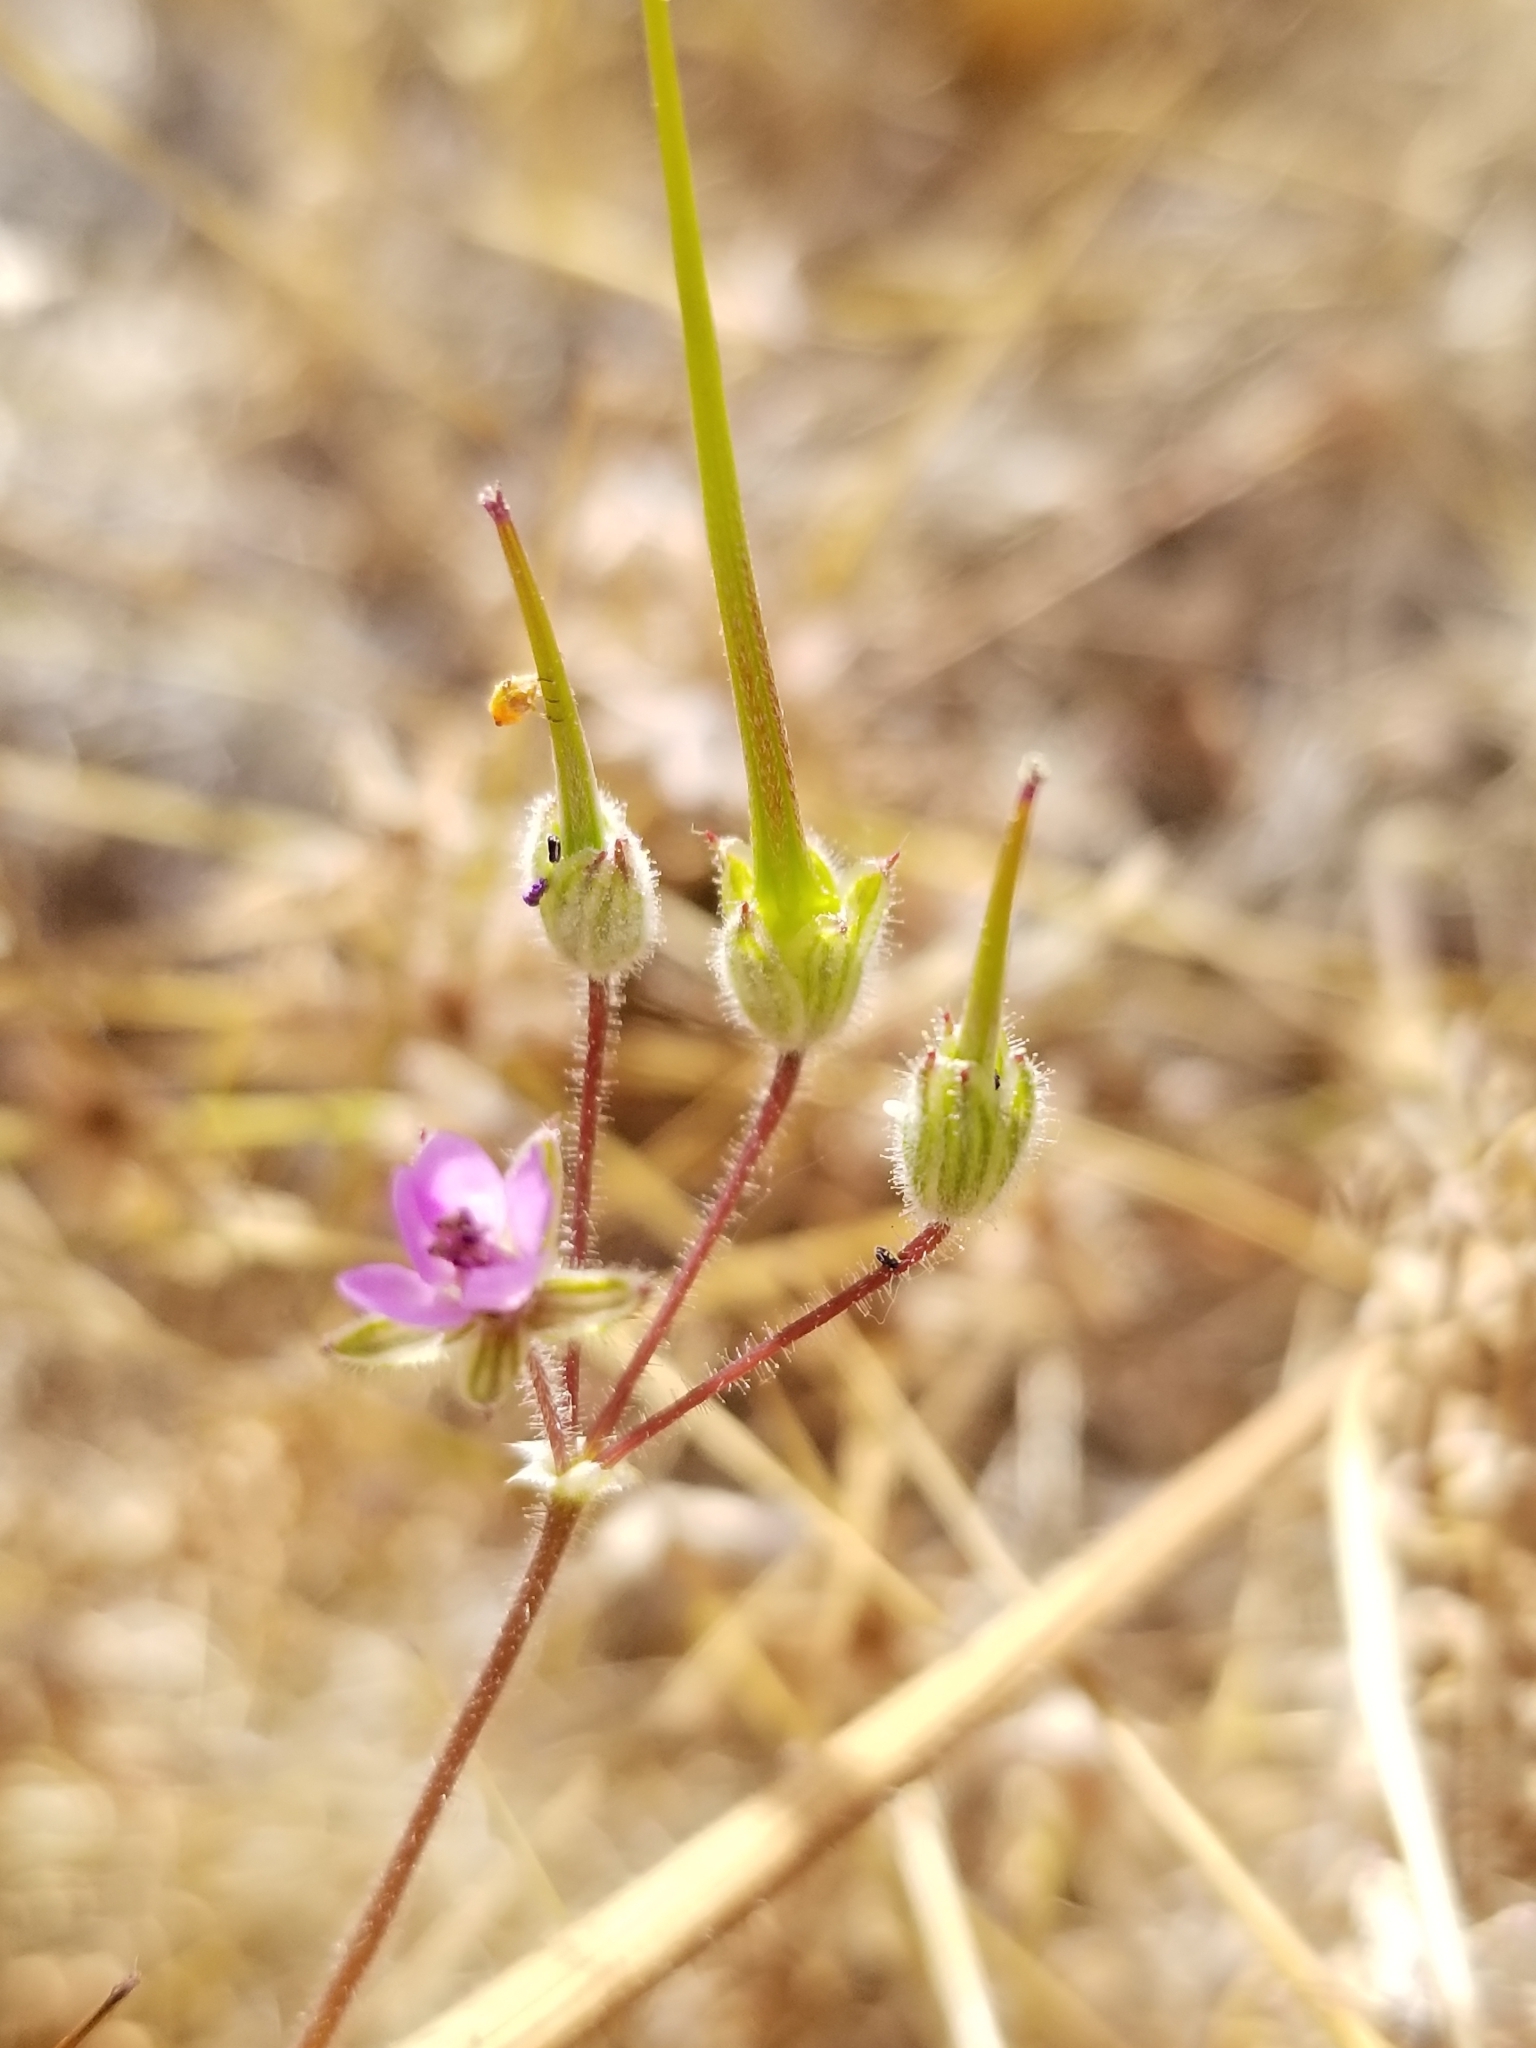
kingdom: Plantae
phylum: Tracheophyta
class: Magnoliopsida
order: Geraniales
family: Geraniaceae
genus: Erodium
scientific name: Erodium cicutarium
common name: Common stork's-bill
